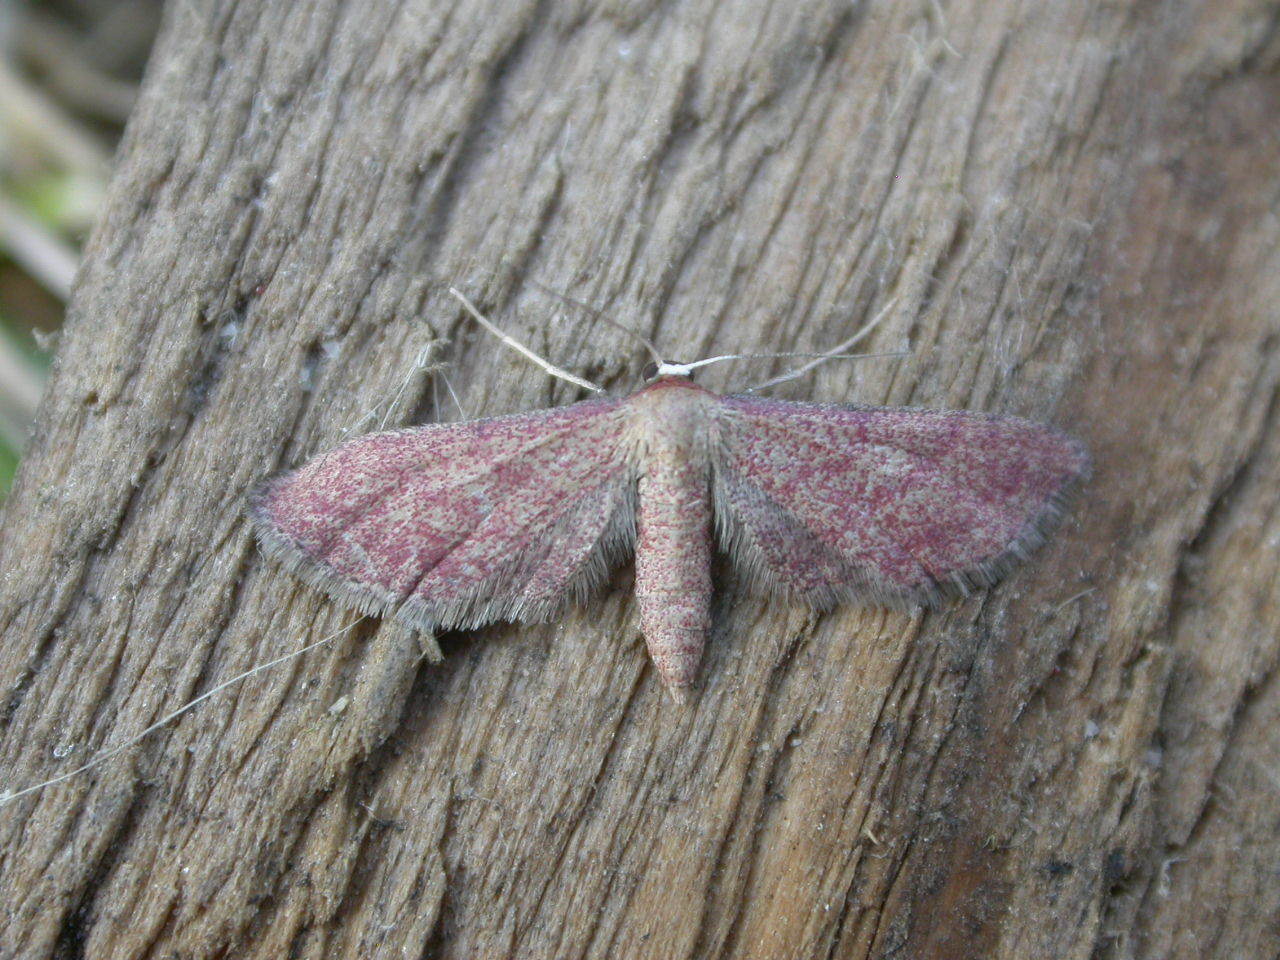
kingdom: Animalia
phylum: Arthropoda
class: Insecta
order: Lepidoptera
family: Geometridae
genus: Idaea
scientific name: Idaea infirmaria
